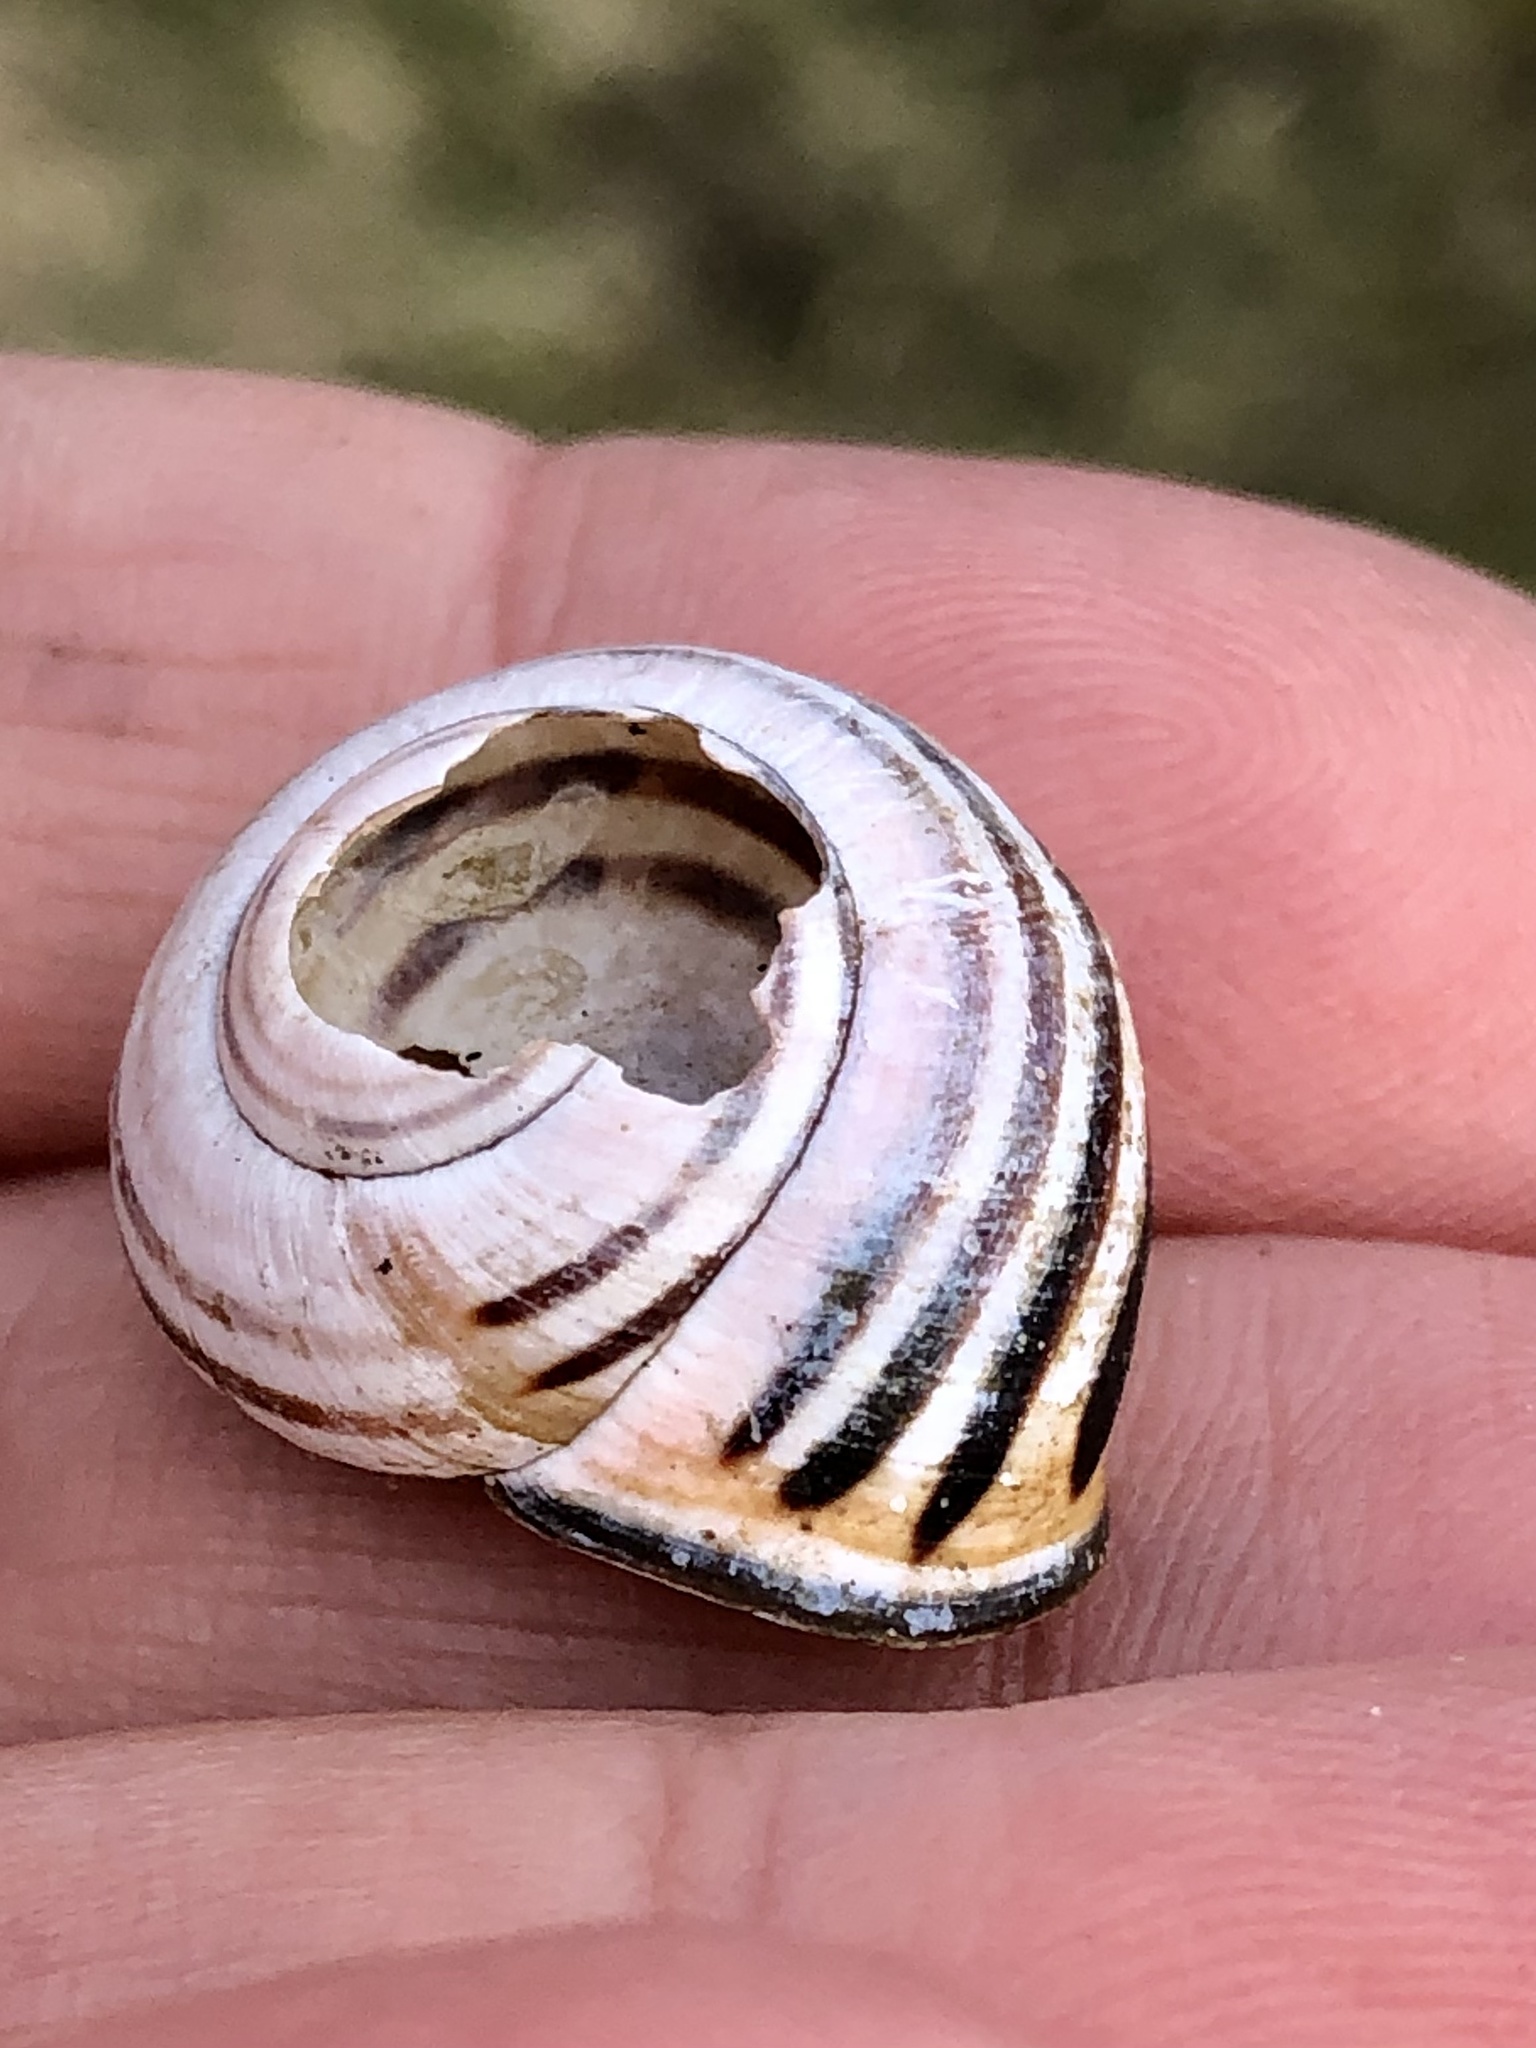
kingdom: Animalia
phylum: Mollusca
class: Gastropoda
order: Stylommatophora
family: Helicidae
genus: Cepaea
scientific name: Cepaea nemoralis
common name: Grovesnail
